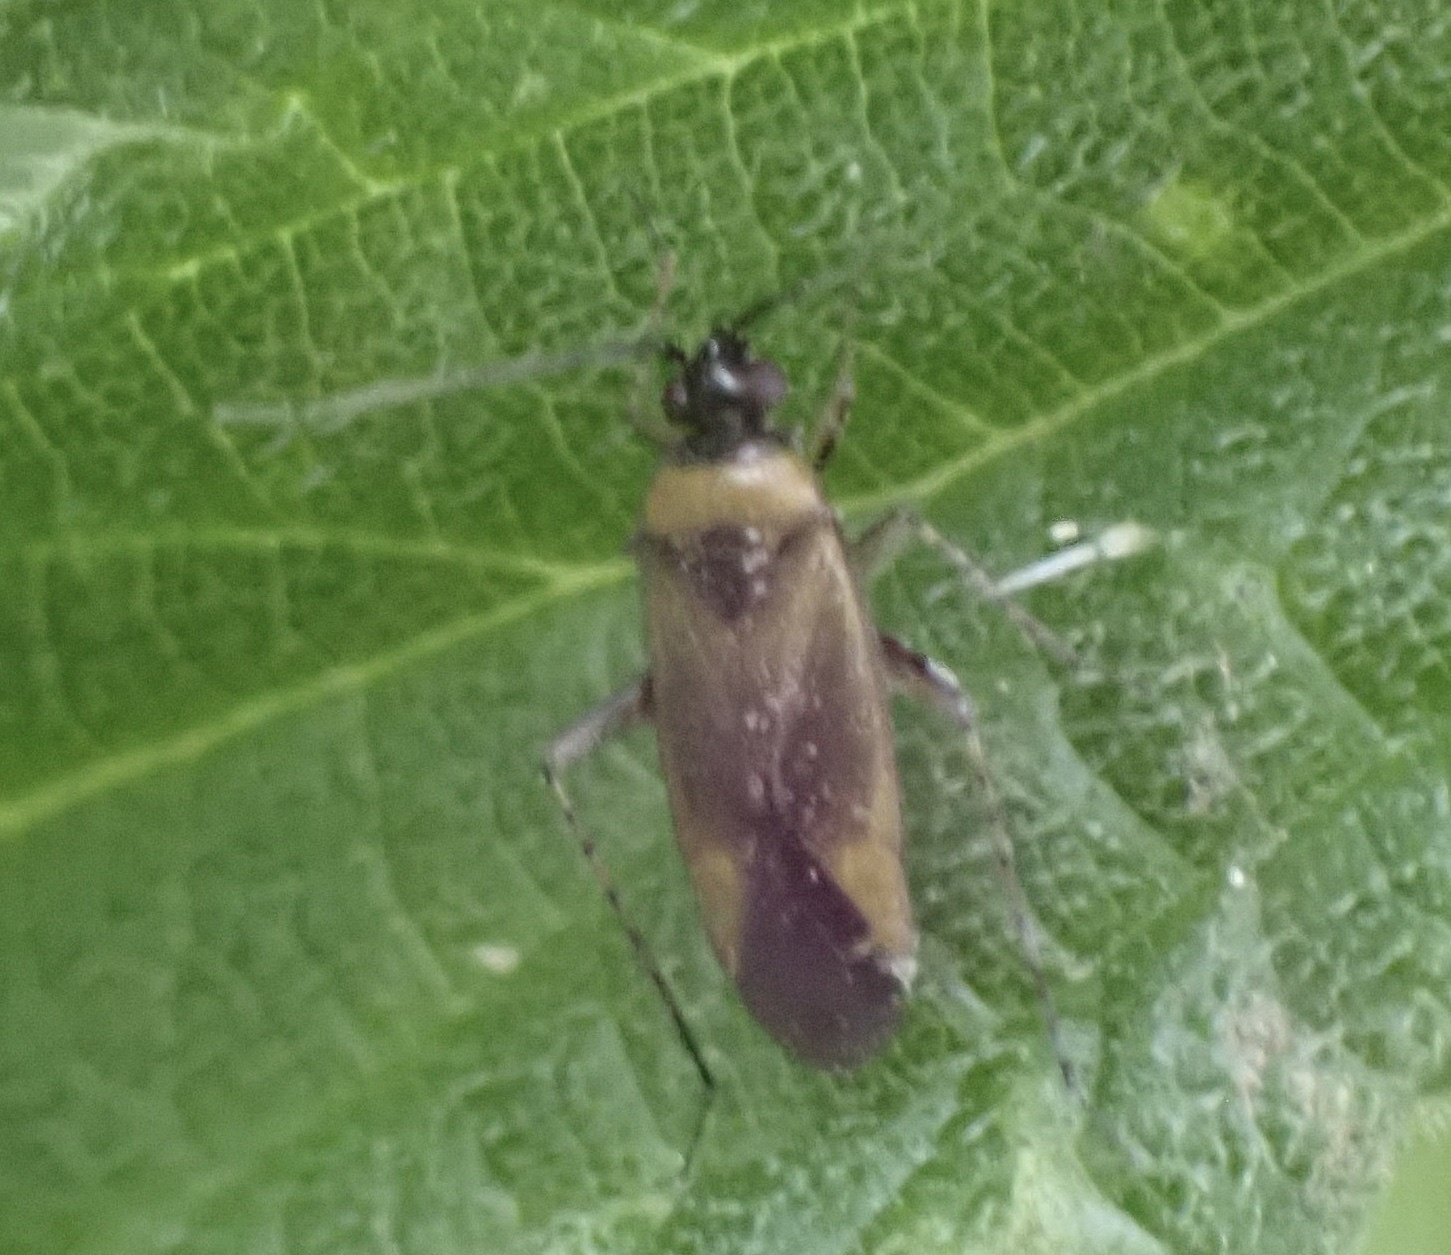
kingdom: Animalia
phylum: Arthropoda
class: Insecta
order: Hemiptera
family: Miridae
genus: Plagiognathus
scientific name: Plagiognathus arbustorum
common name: Plant bug
